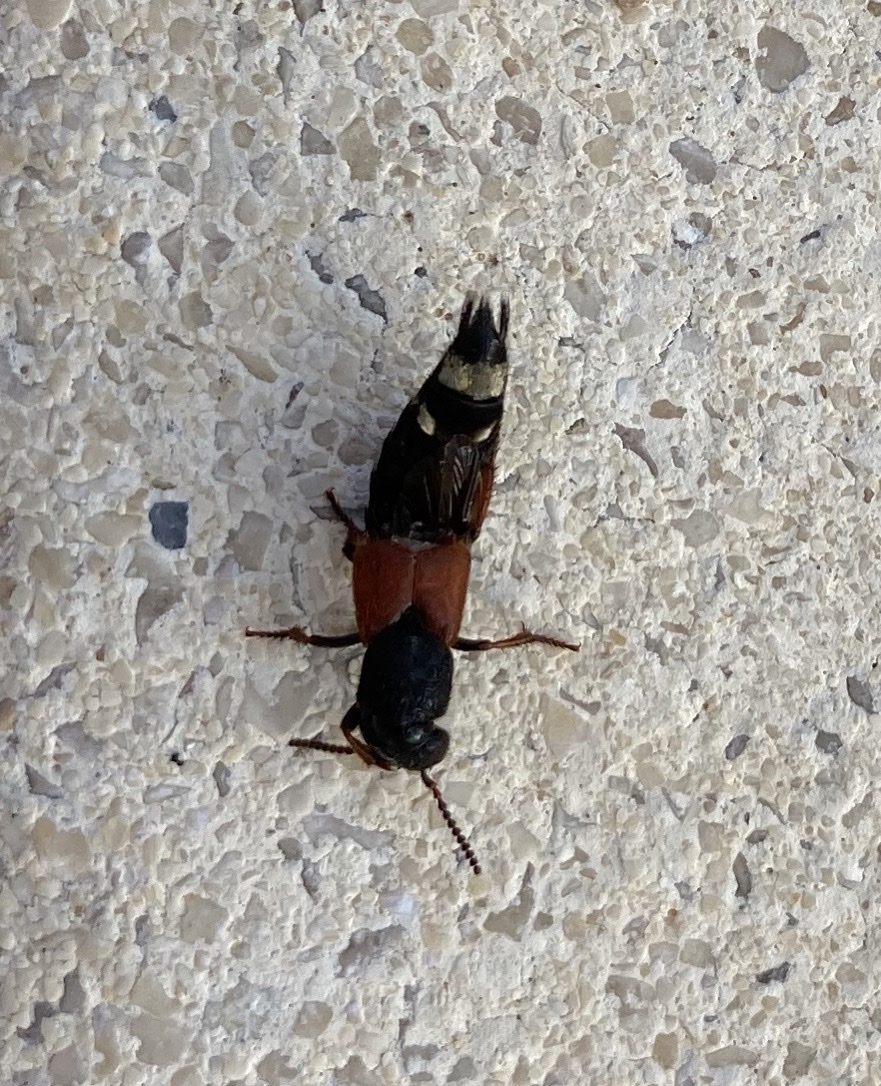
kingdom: Animalia
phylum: Arthropoda
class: Insecta
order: Coleoptera
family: Staphylinidae
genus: Platydracus
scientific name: Platydracus stercorarius
